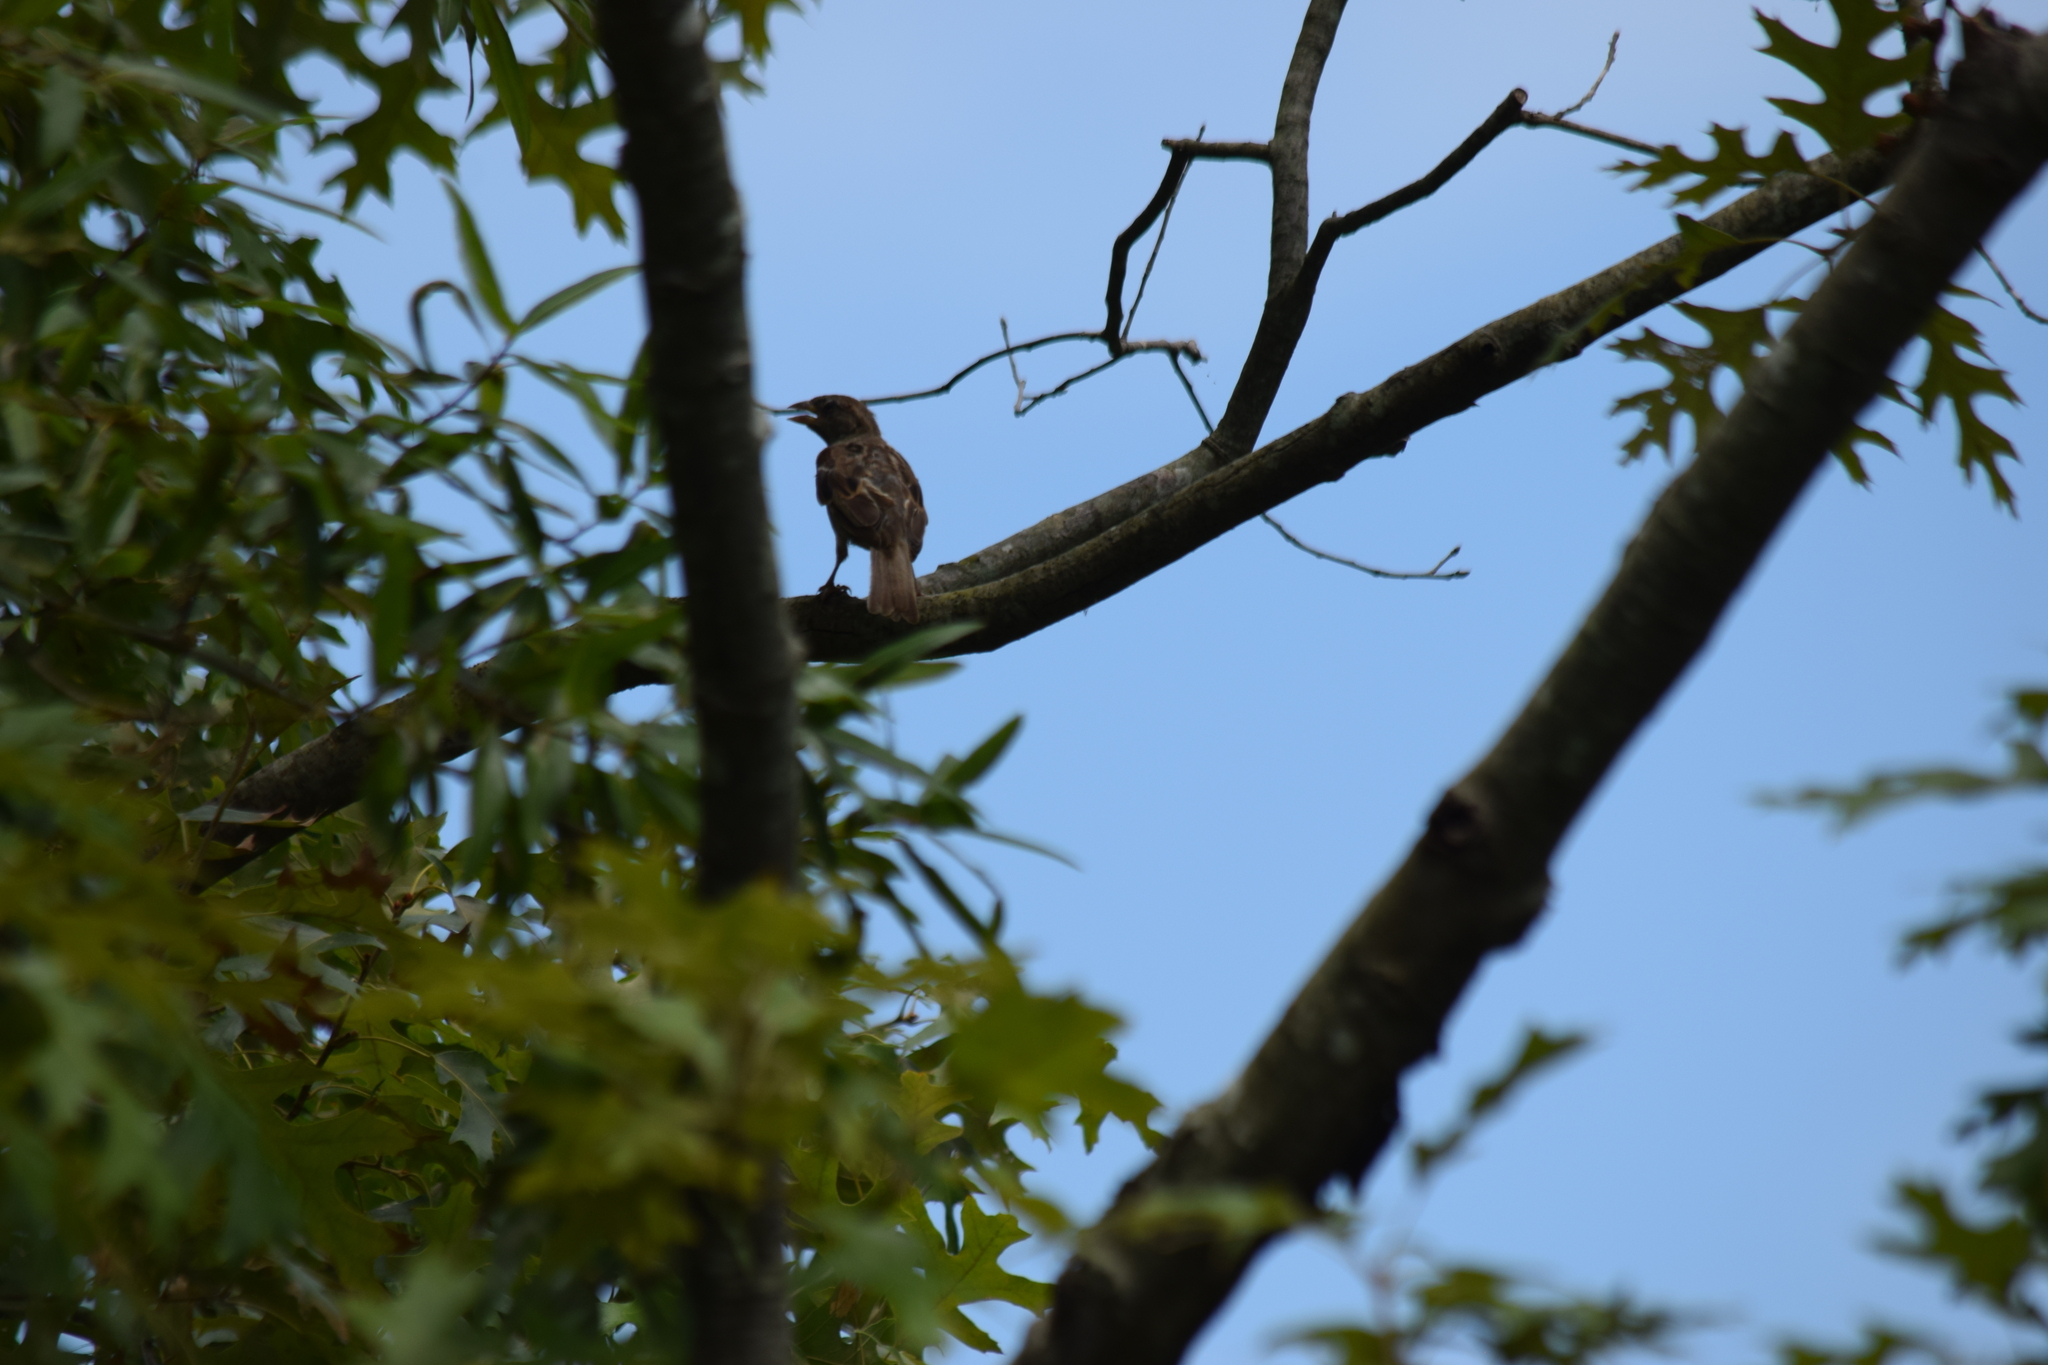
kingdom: Animalia
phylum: Chordata
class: Aves
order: Passeriformes
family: Passeridae
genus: Passer
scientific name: Passer domesticus
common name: House sparrow
